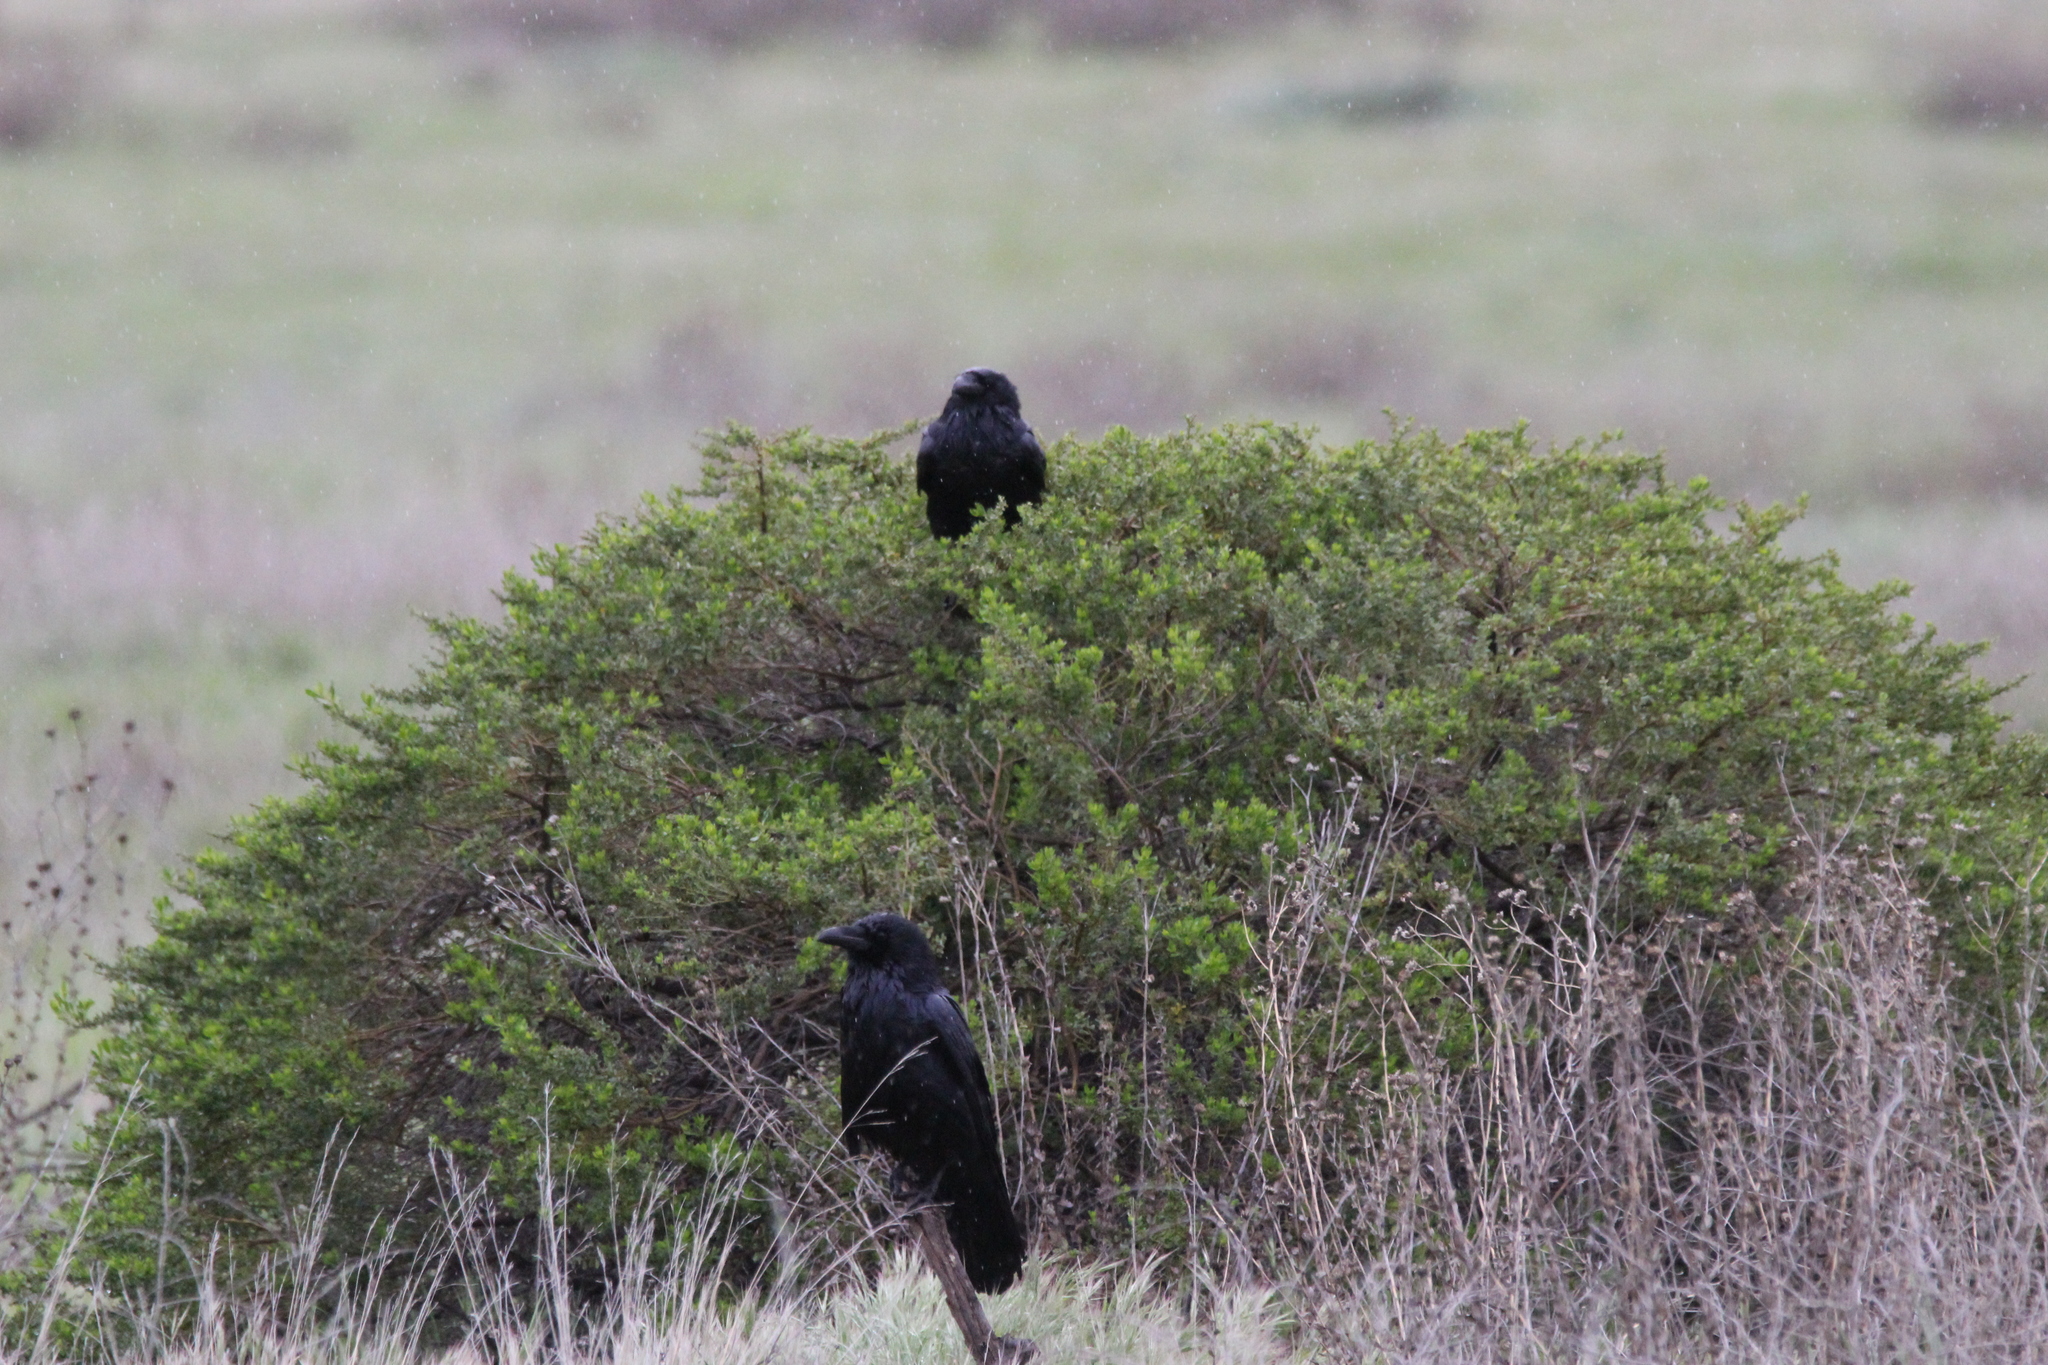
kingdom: Animalia
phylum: Chordata
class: Aves
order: Passeriformes
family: Corvidae
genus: Corvus
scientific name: Corvus corax
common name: Common raven
